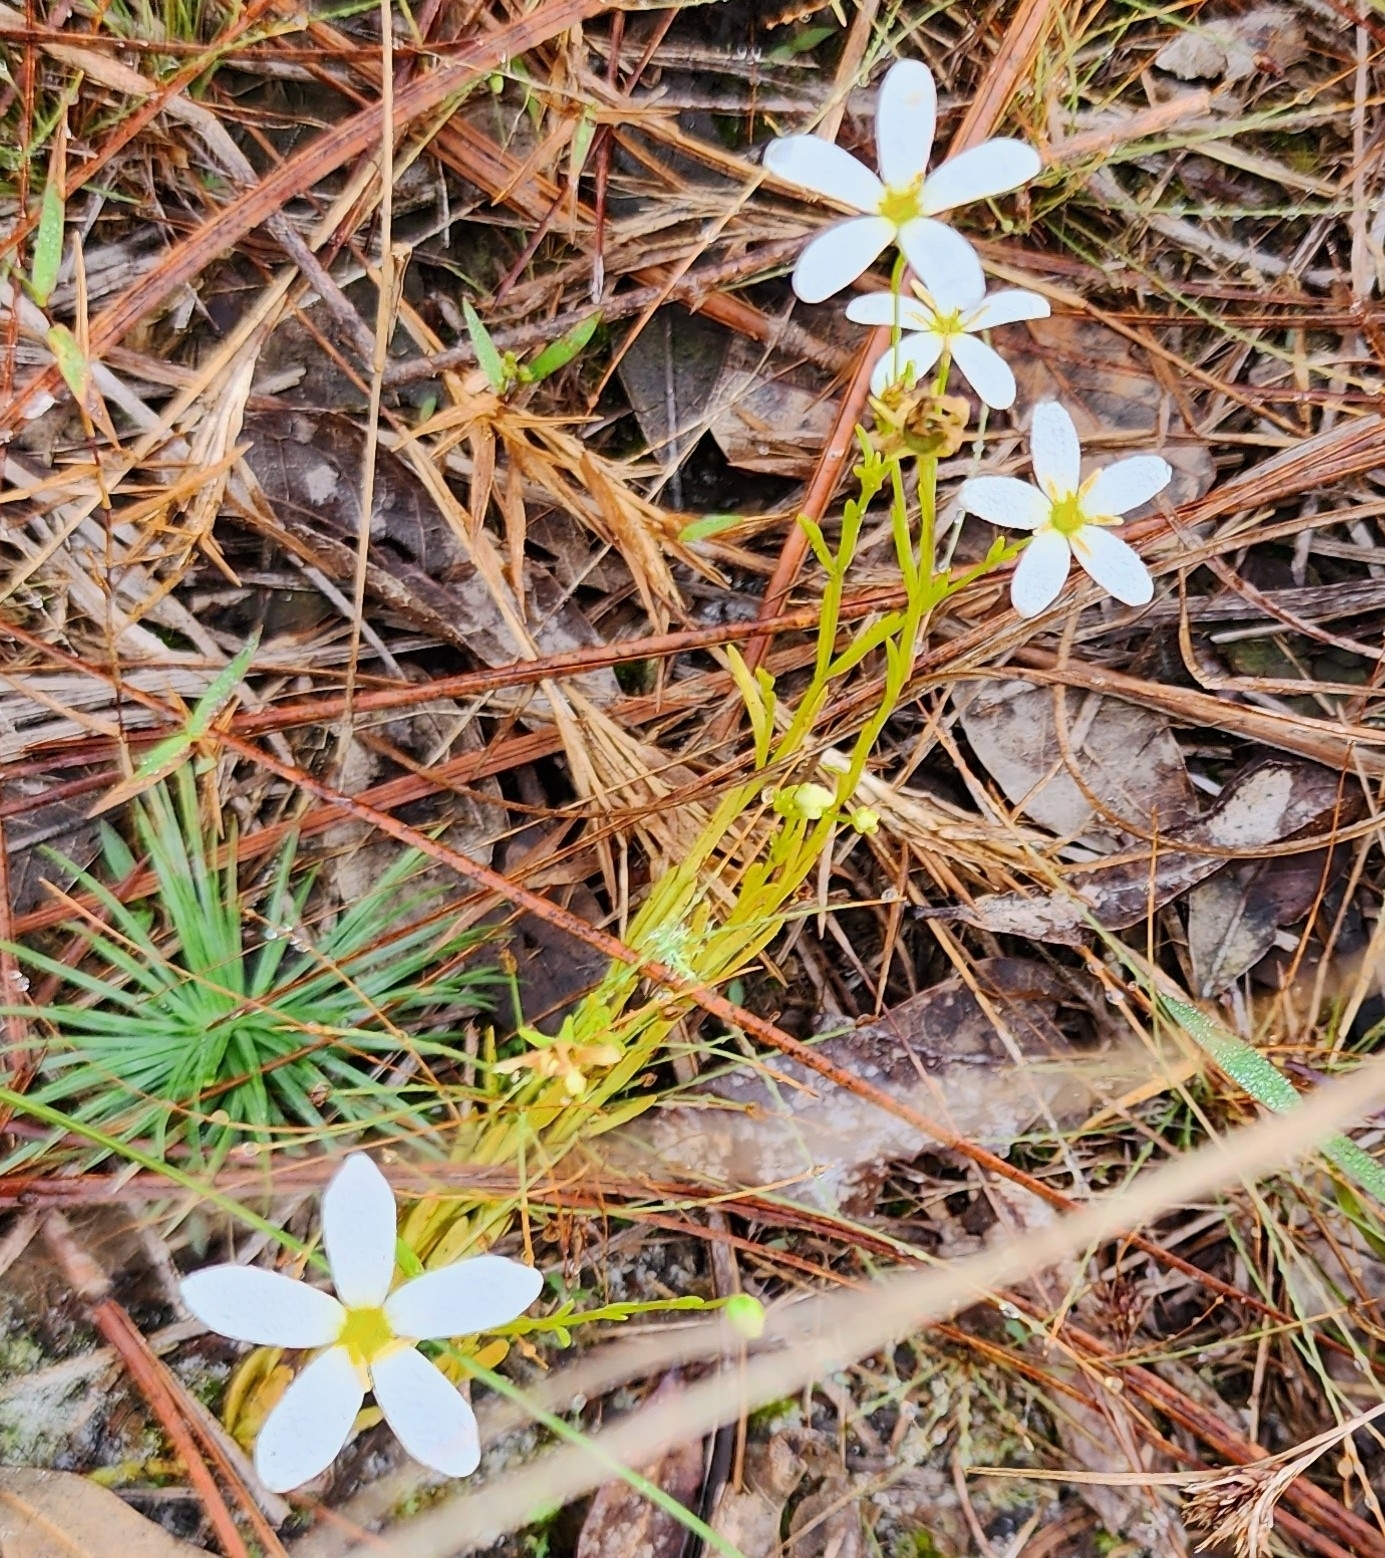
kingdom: Plantae
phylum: Tracheophyta
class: Magnoliopsida
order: Gentianales
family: Gentianaceae
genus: Sabatia
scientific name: Sabatia brevifolia
